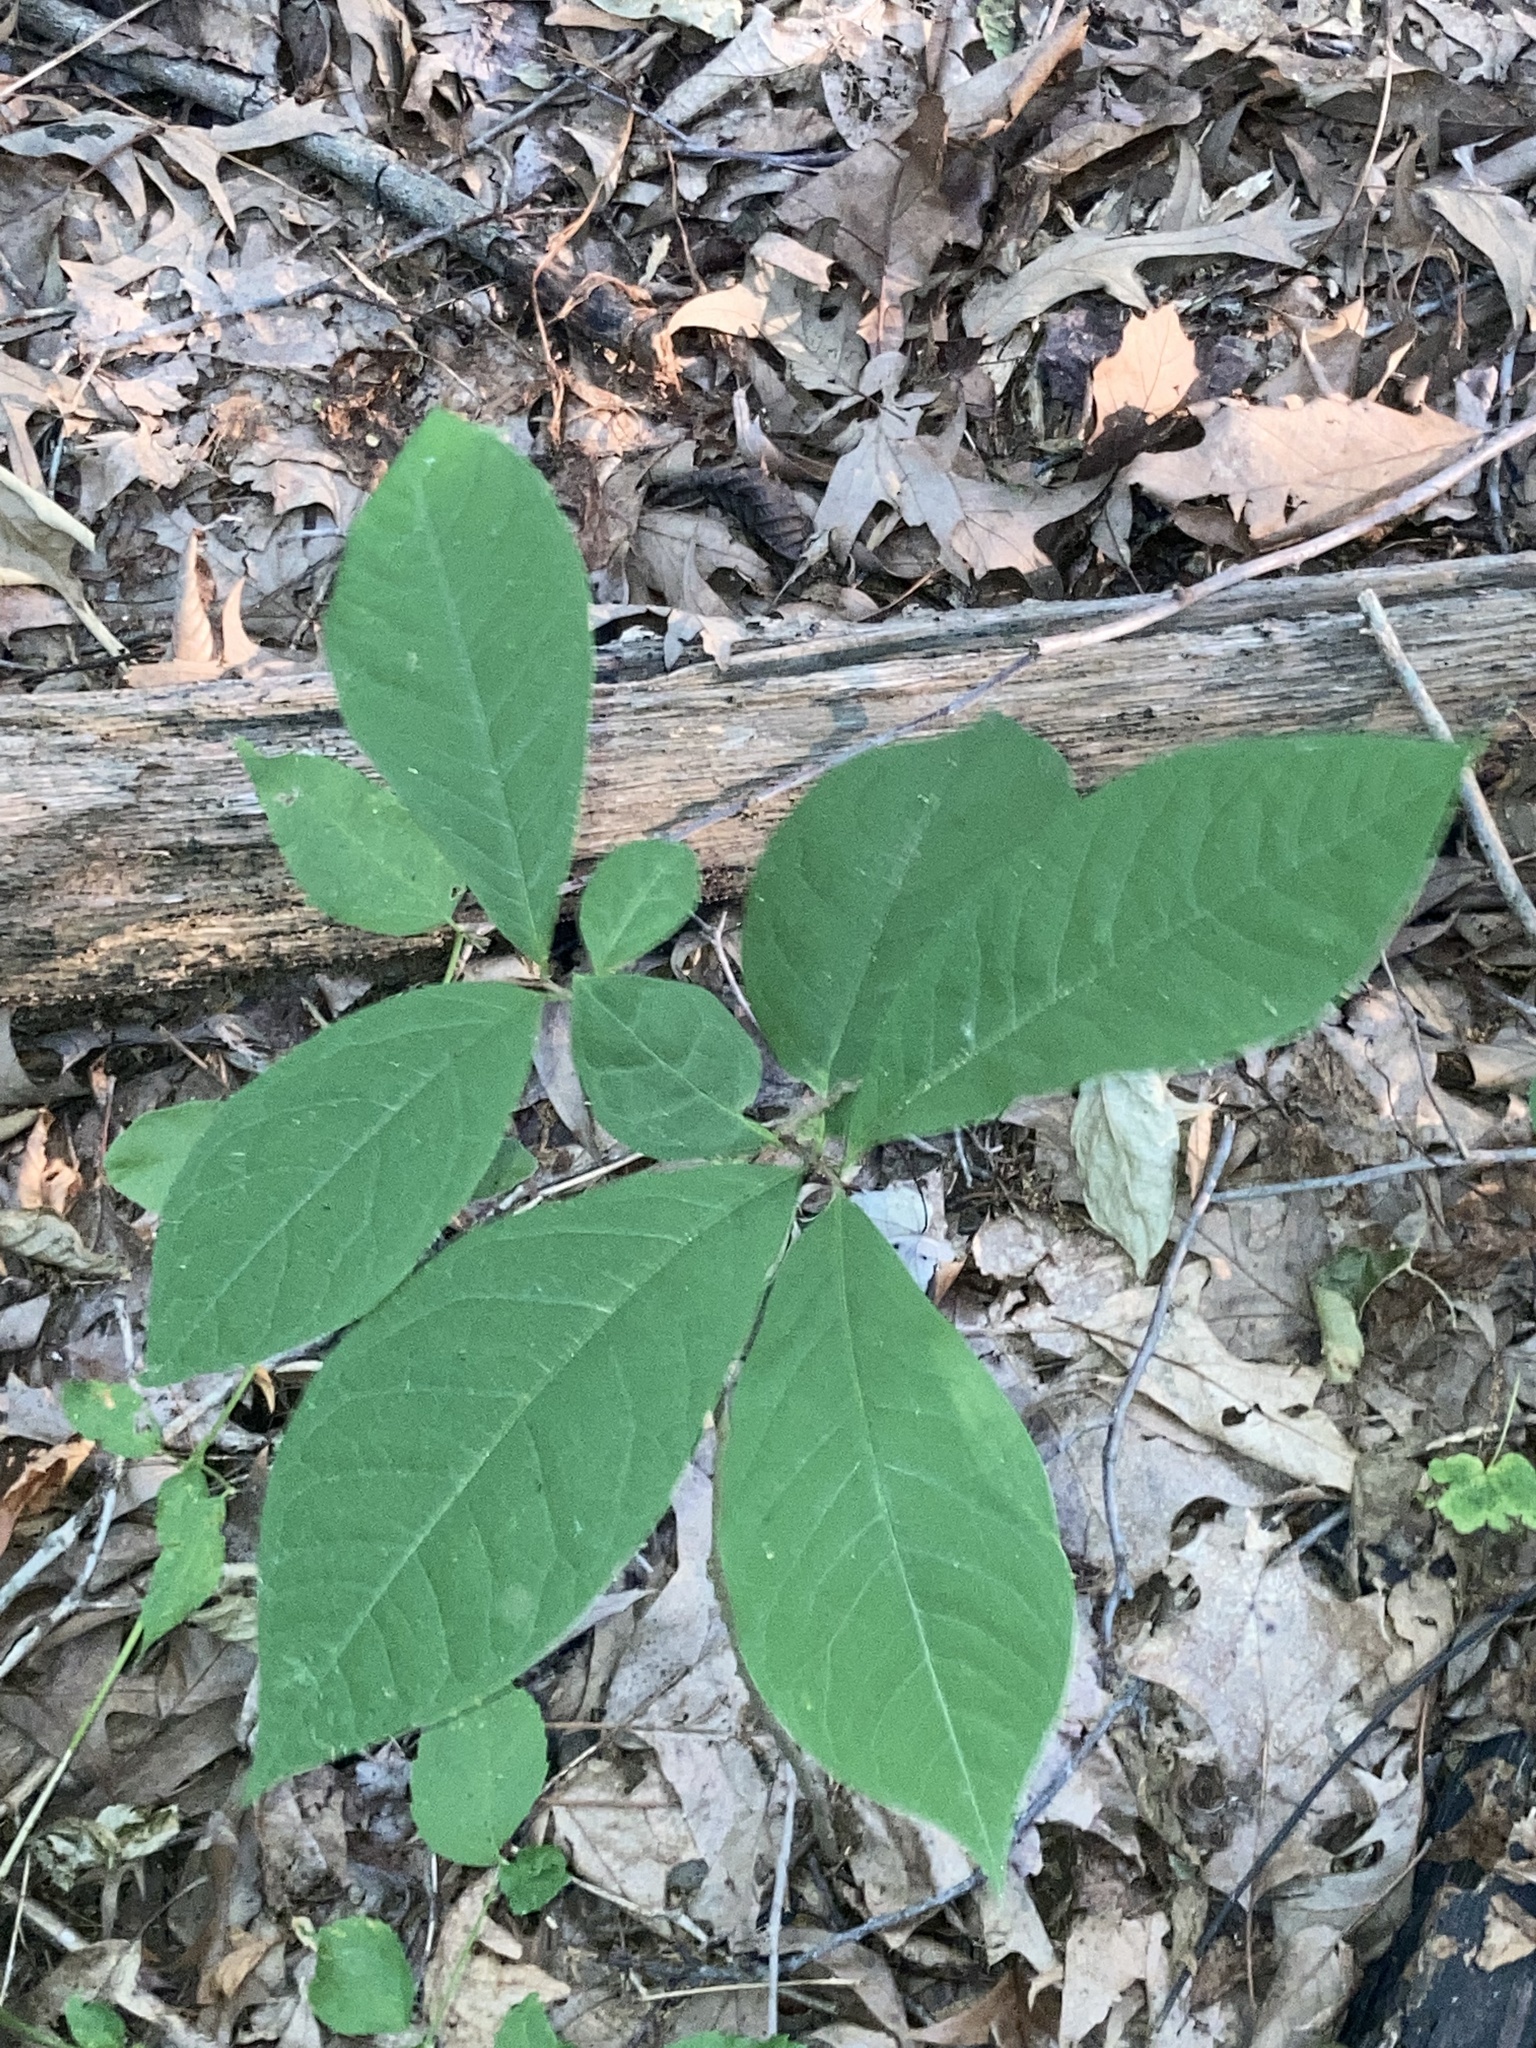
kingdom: Plantae
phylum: Tracheophyta
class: Magnoliopsida
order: Magnoliales
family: Annonaceae
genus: Asimina
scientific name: Asimina triloba
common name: Dog-banana
